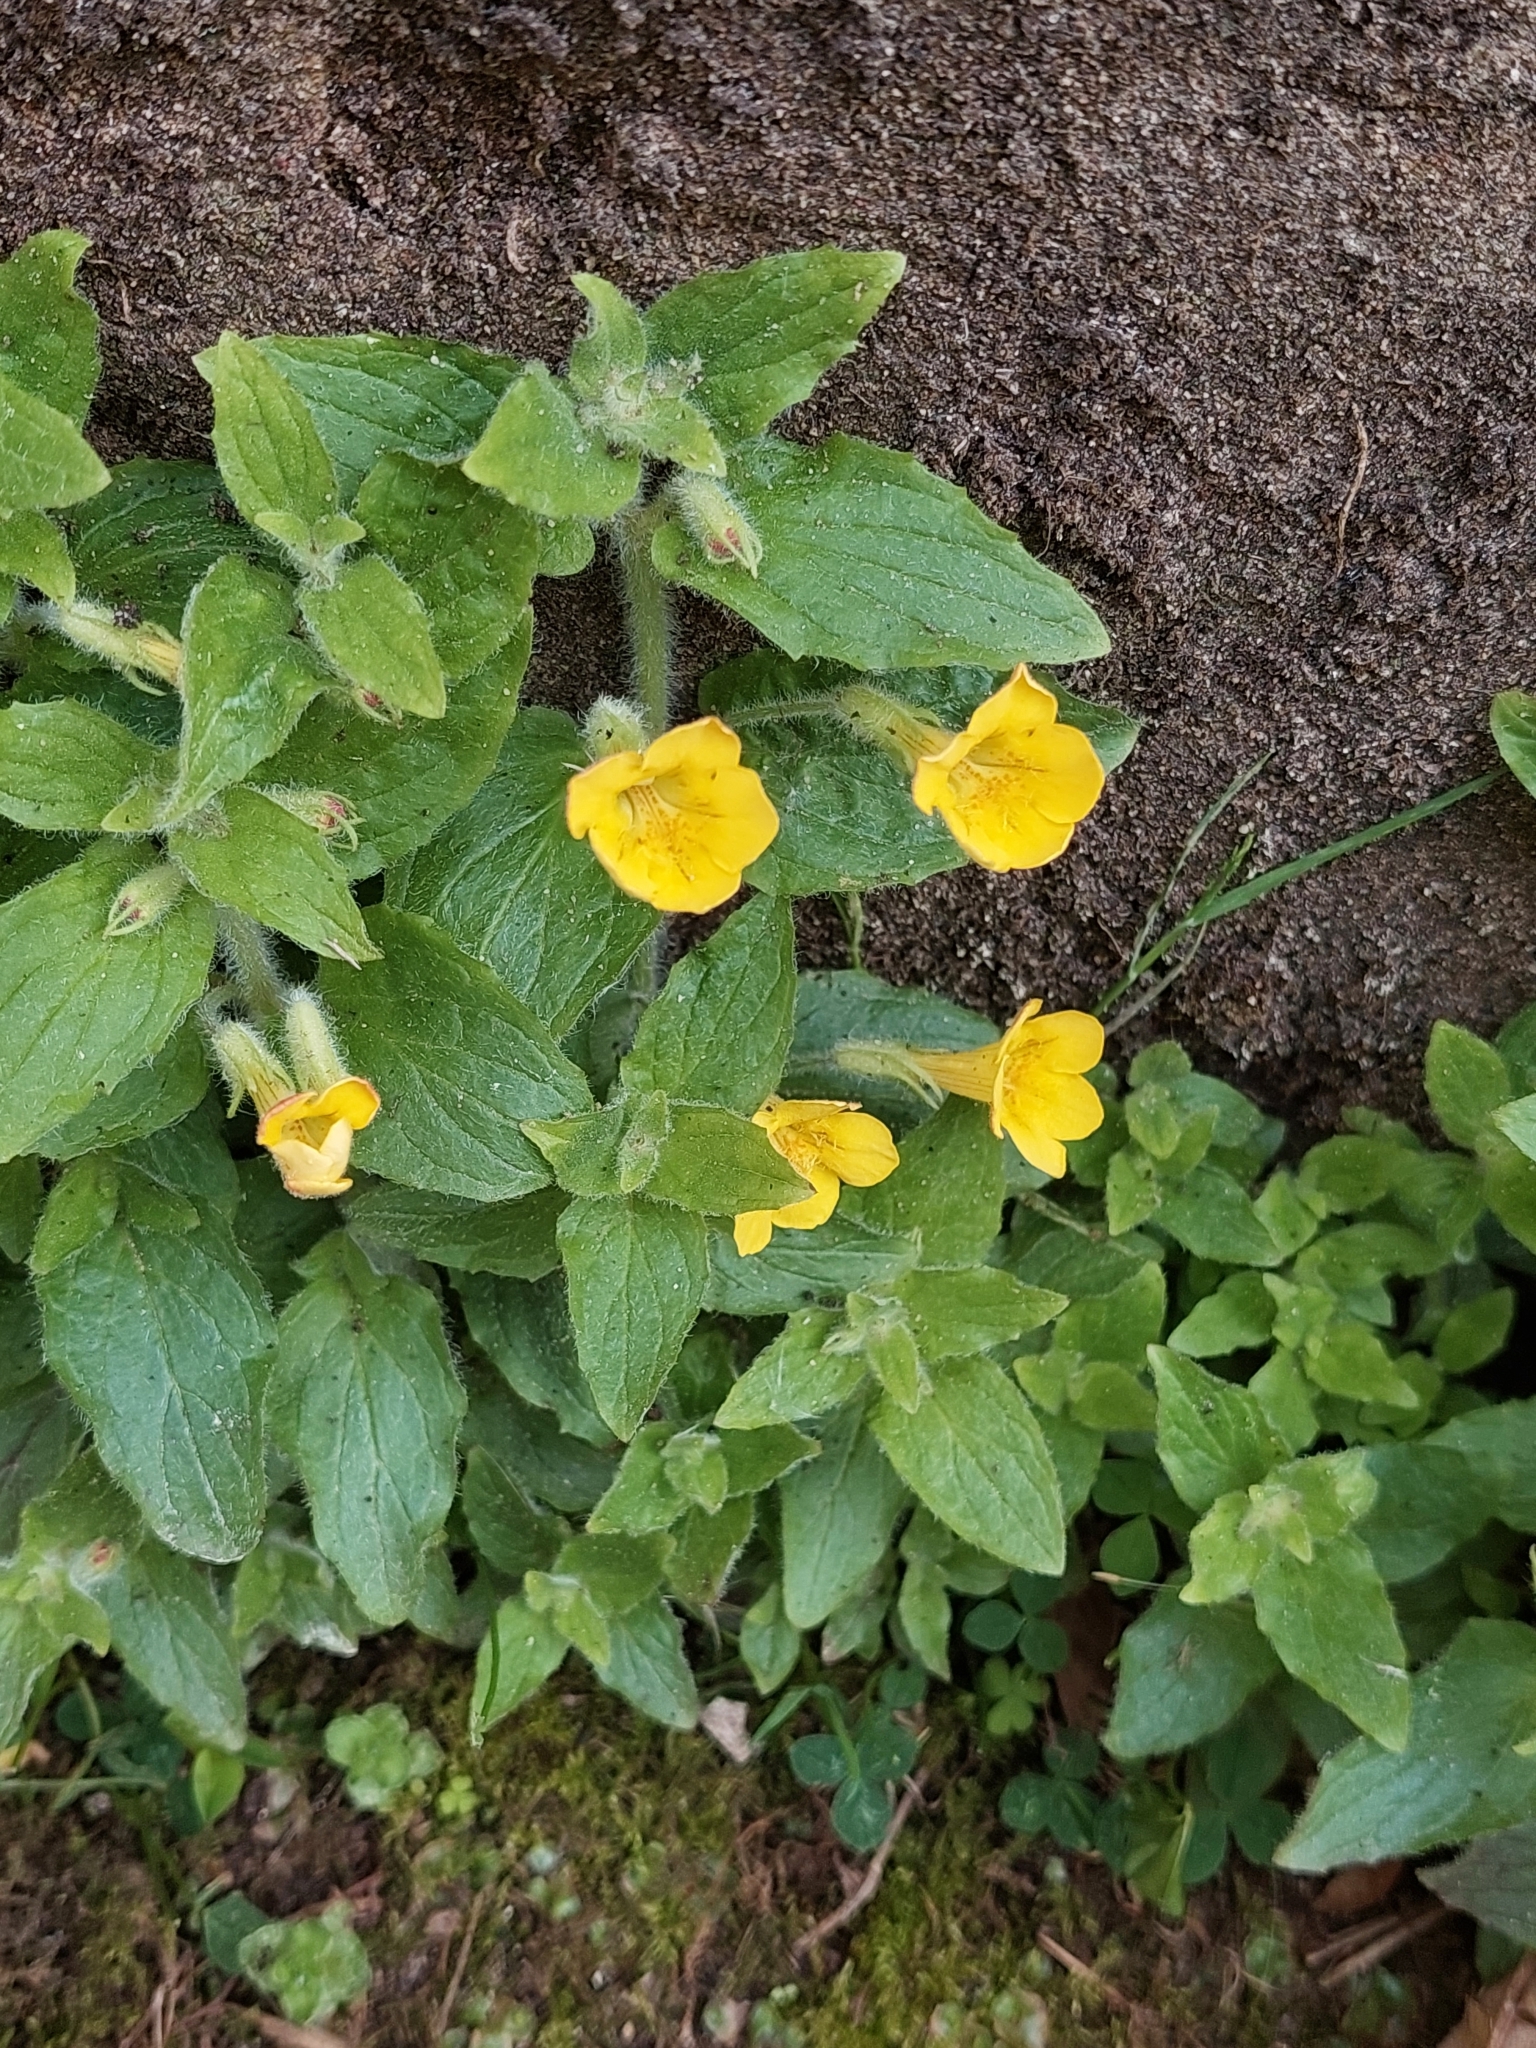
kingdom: Plantae
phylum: Tracheophyta
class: Magnoliopsida
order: Lamiales
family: Phrymaceae
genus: Erythranthe
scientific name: Erythranthe moschata
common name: Muskflower
